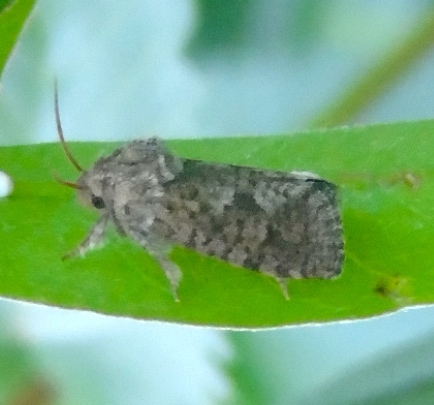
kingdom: Animalia
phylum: Arthropoda
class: Insecta
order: Lepidoptera
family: Tineidae
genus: Acrolophus
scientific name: Acrolophus
